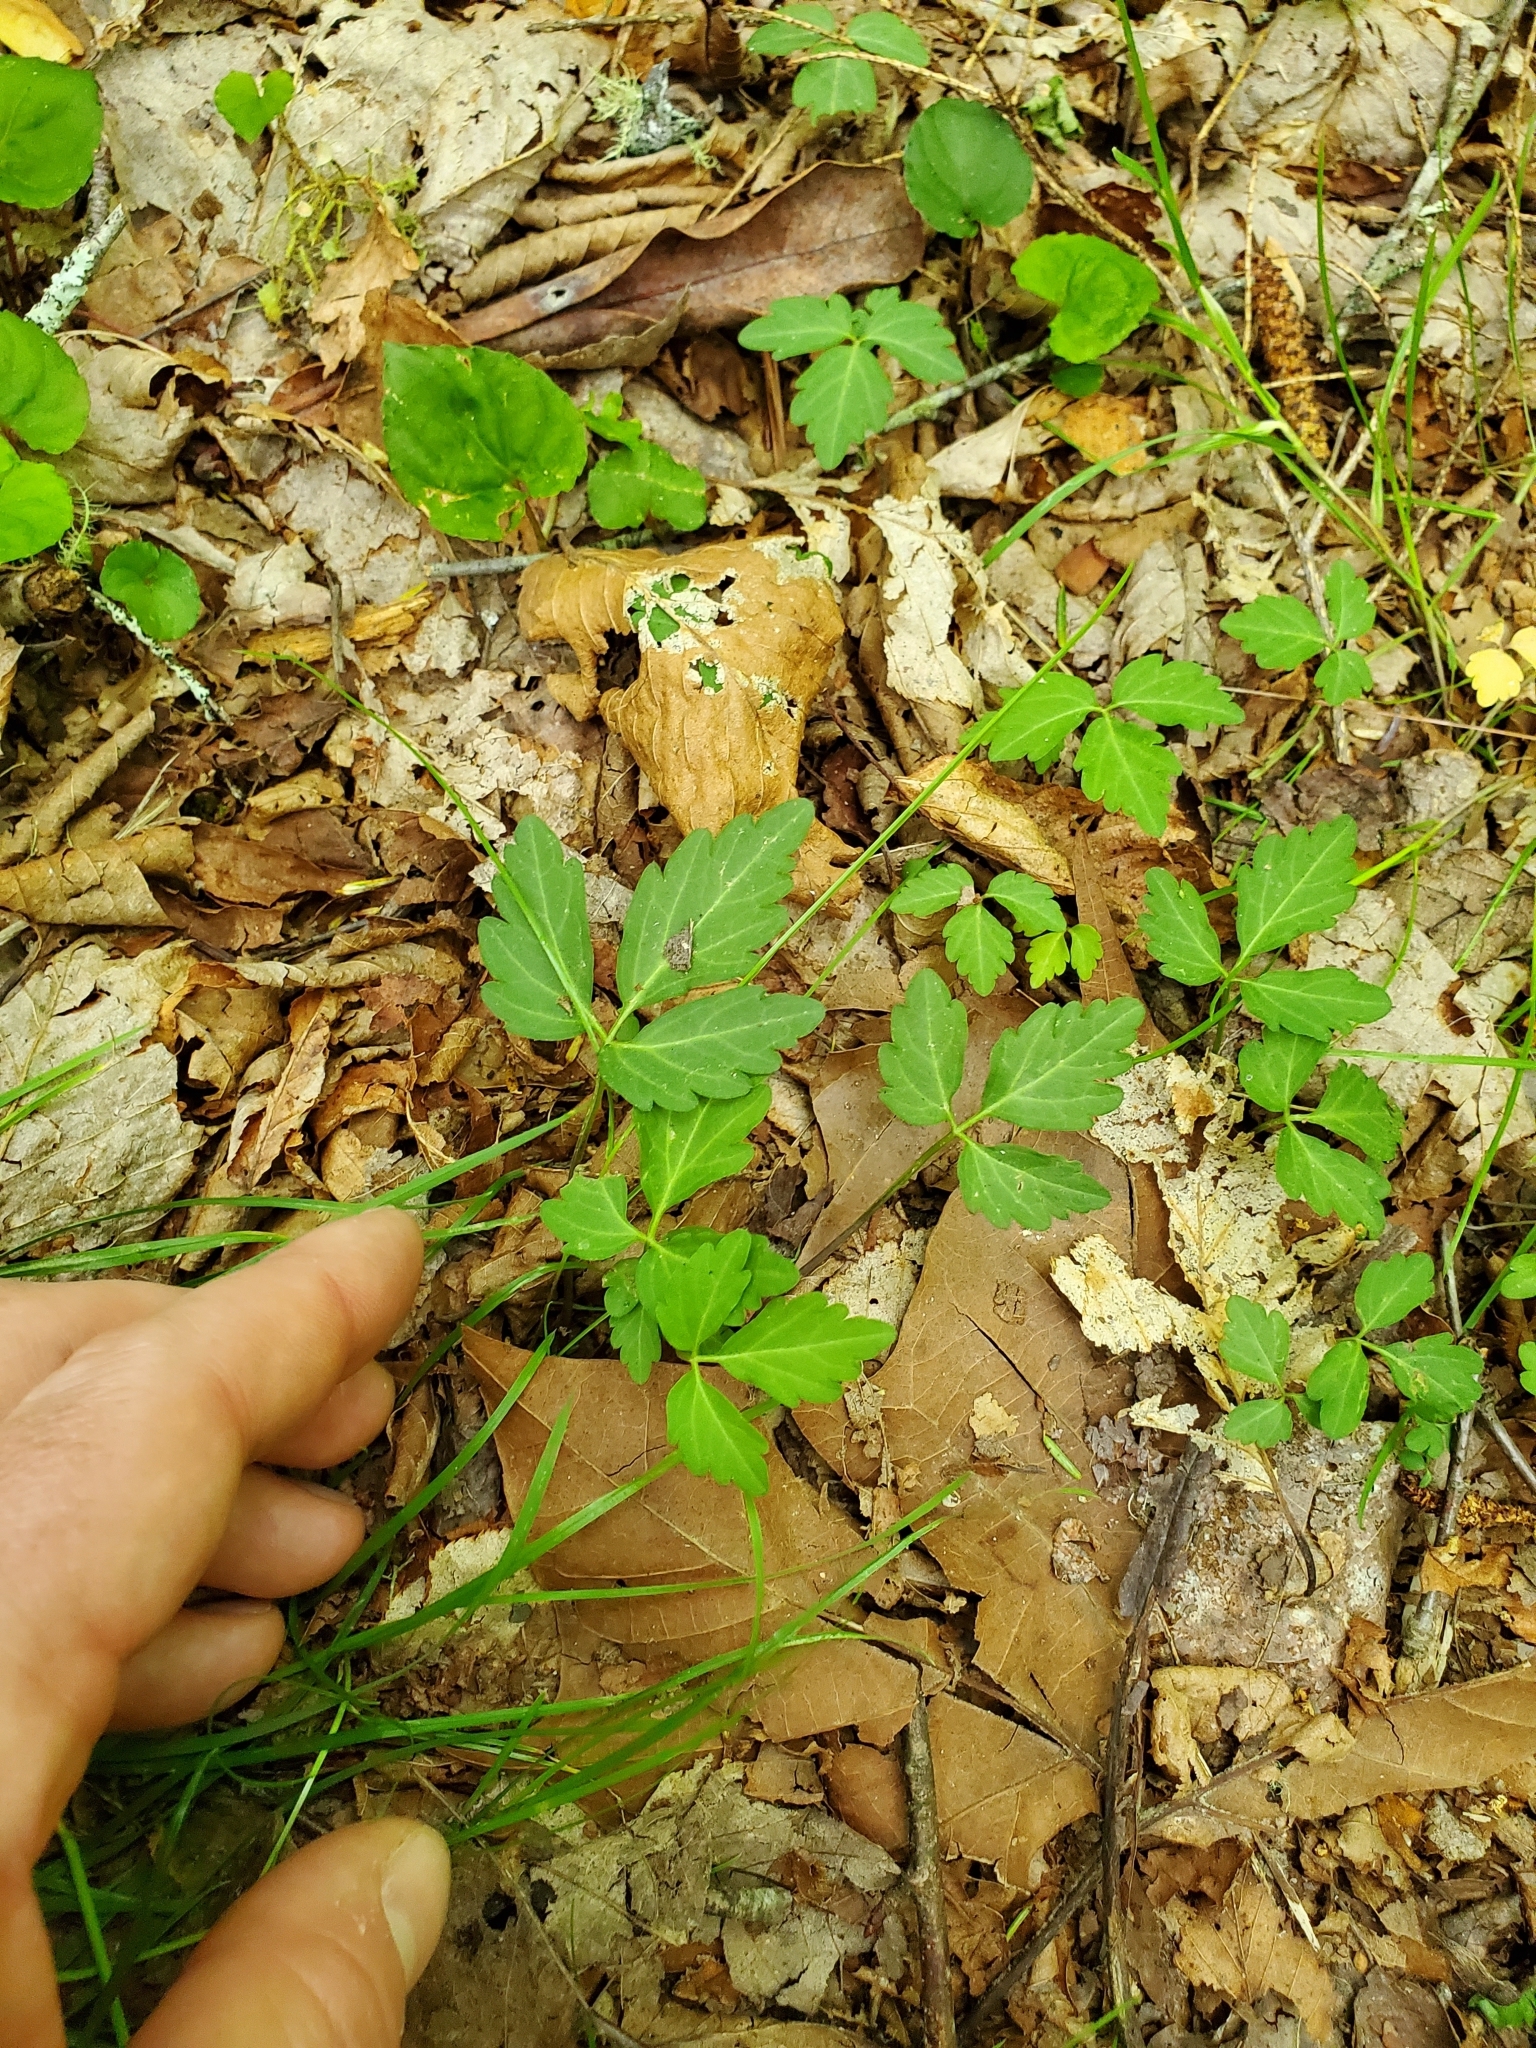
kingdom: Plantae
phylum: Tracheophyta
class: Magnoliopsida
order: Brassicales
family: Brassicaceae
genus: Cardamine
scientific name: Cardamine diphylla
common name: Broad-leaved toothwort
